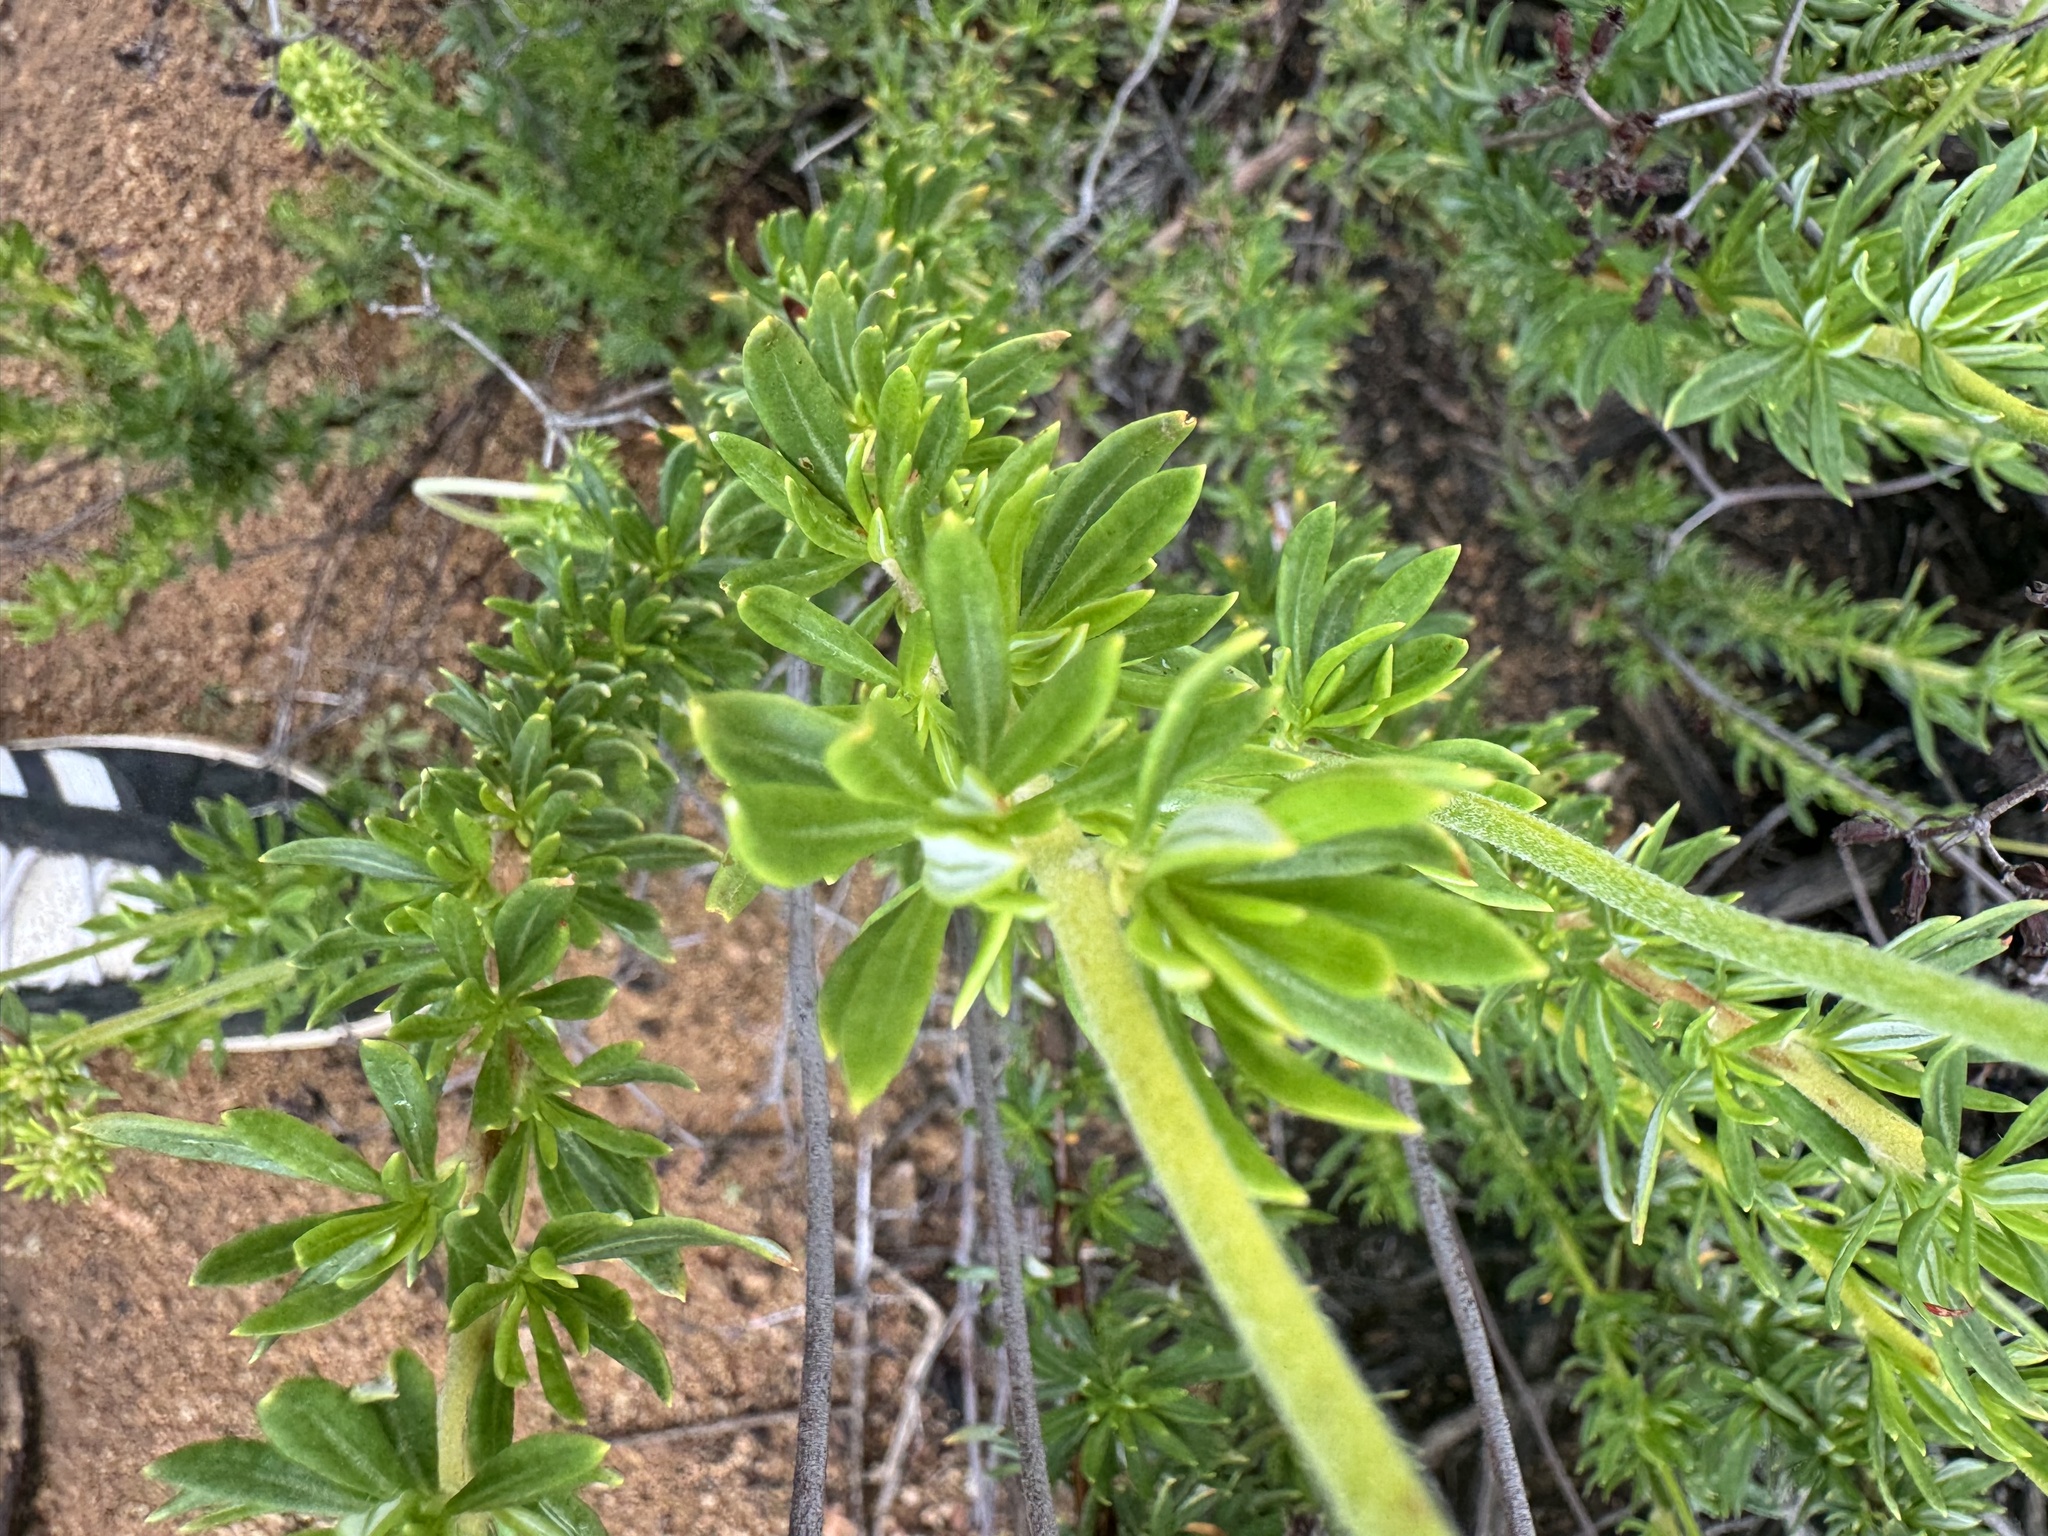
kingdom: Plantae
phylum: Tracheophyta
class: Magnoliopsida
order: Caryophyllales
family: Polygonaceae
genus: Eriogonum
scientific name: Eriogonum fasciculatum
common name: California wild buckwheat
